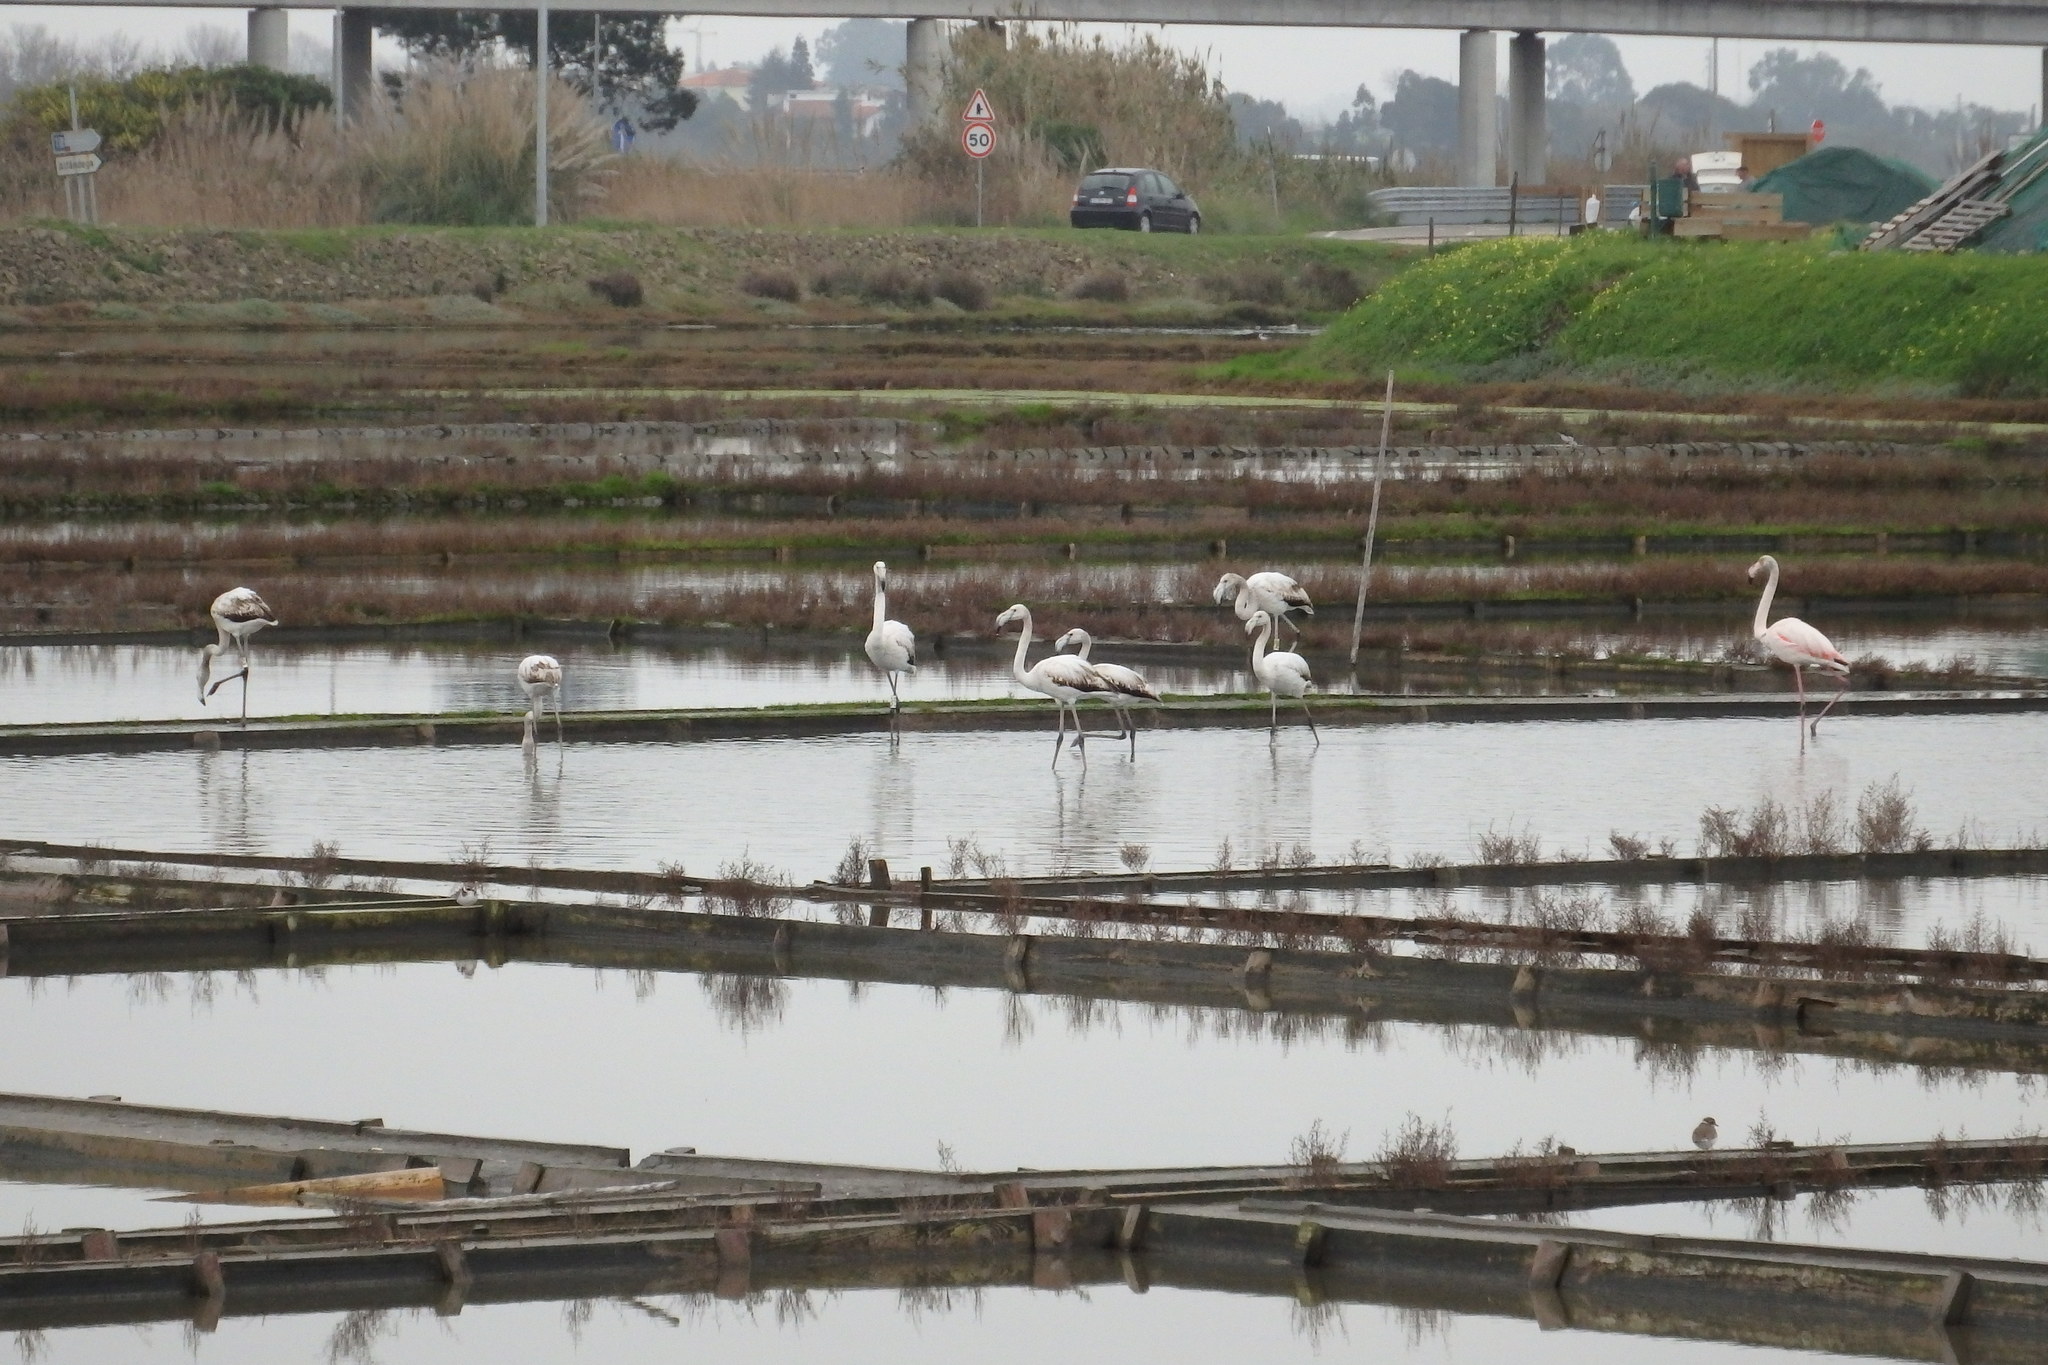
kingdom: Animalia
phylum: Chordata
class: Aves
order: Phoenicopteriformes
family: Phoenicopteridae
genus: Phoenicopterus
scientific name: Phoenicopterus roseus
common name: Greater flamingo
